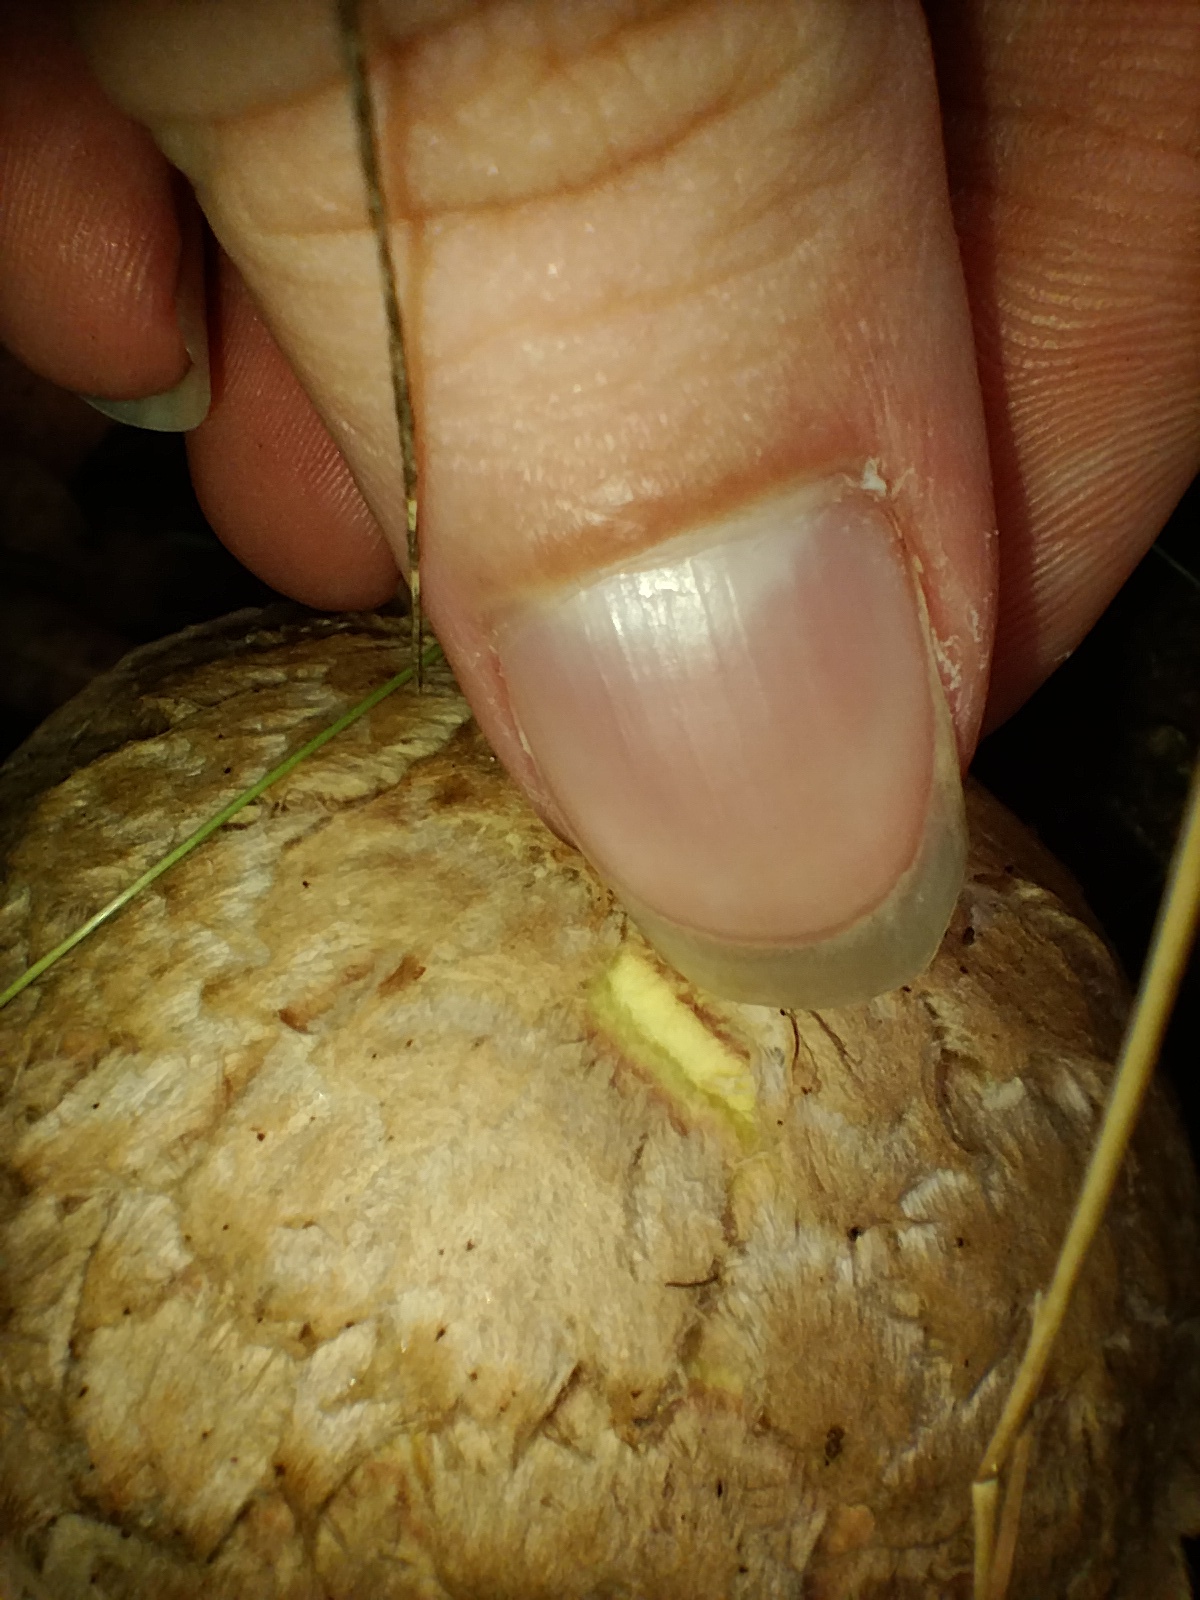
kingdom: Fungi
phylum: Basidiomycota
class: Agaricomycetes
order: Boletales
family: Boletaceae
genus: Boletellus
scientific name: Boletellus dissiliens
